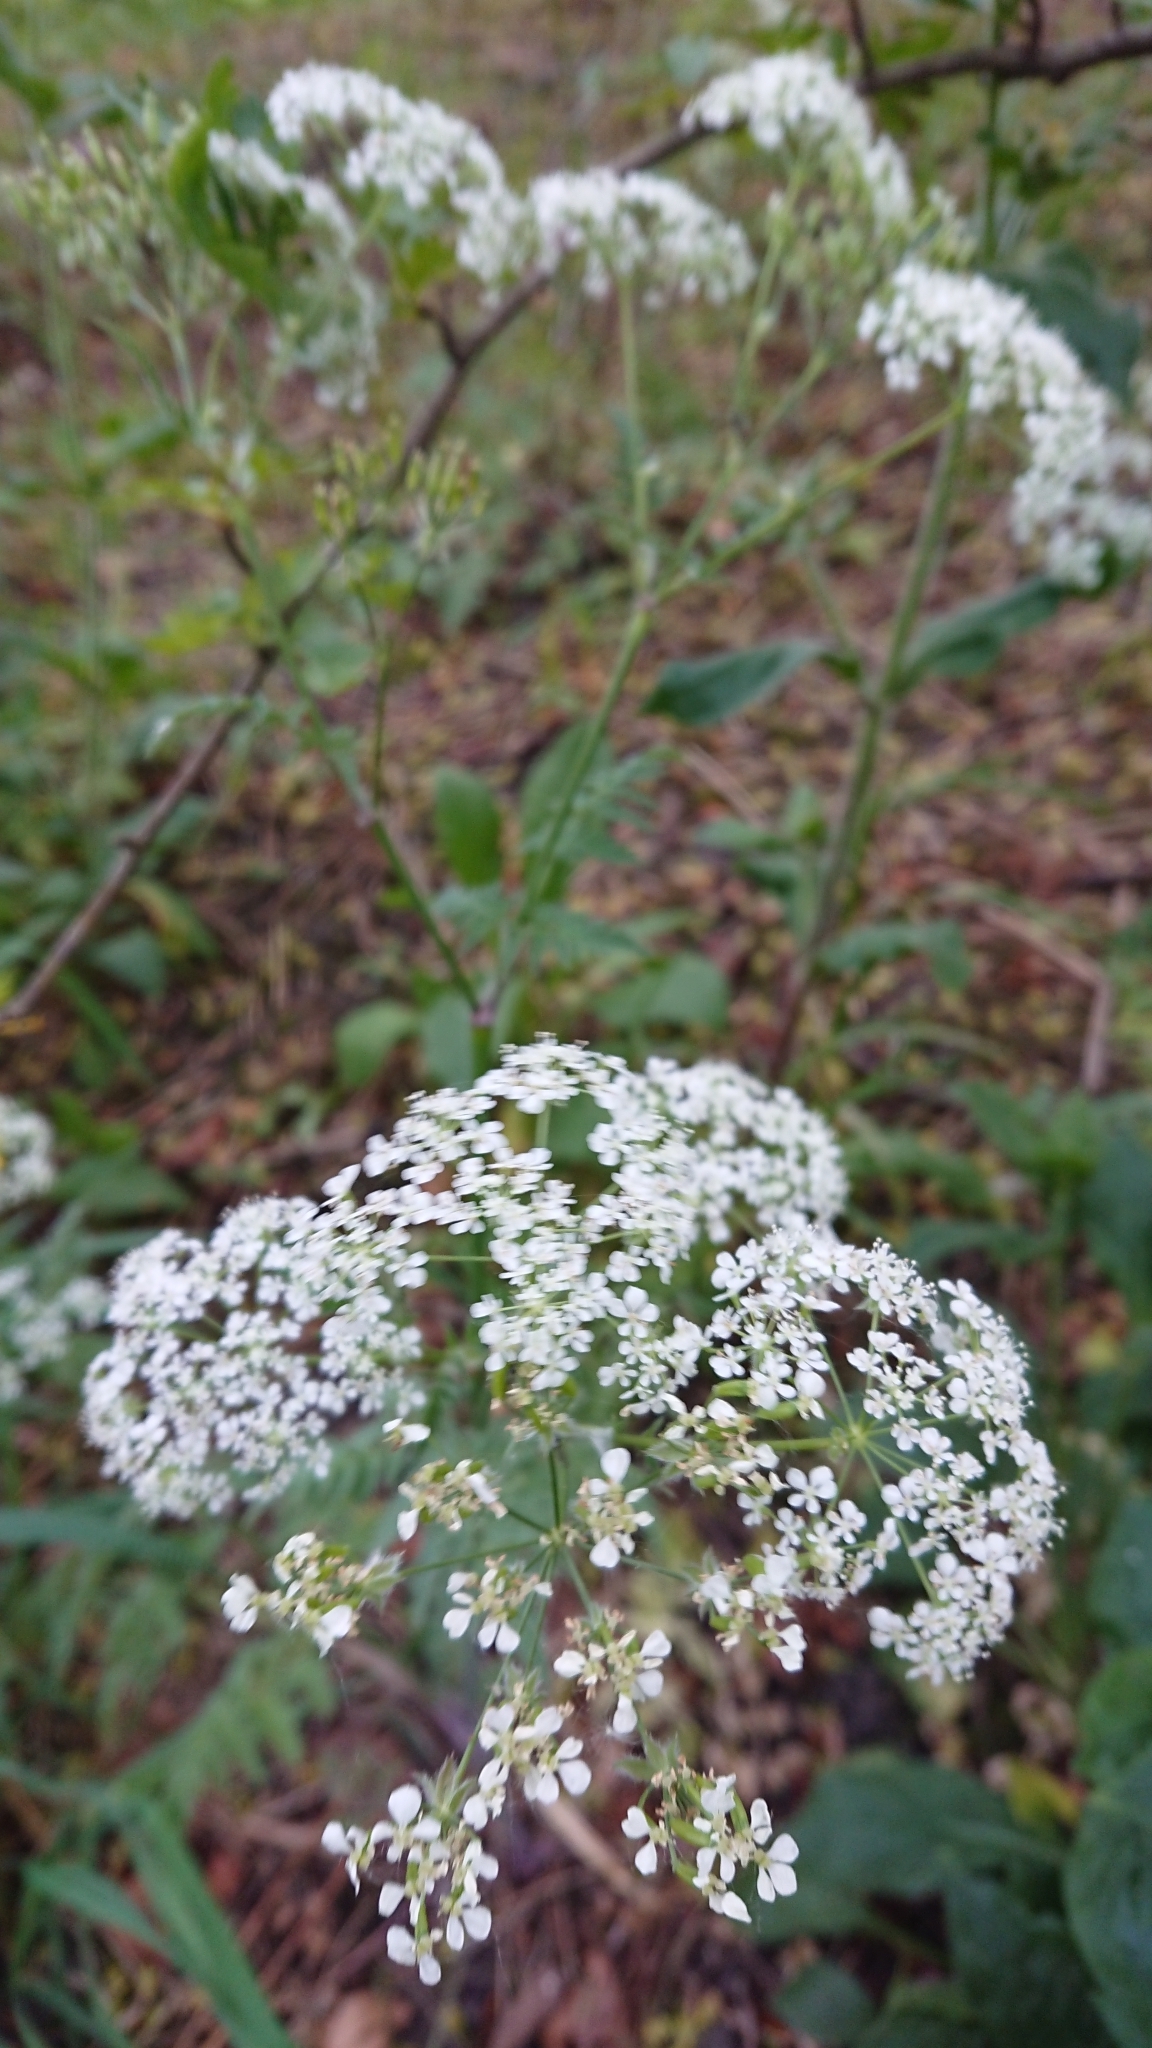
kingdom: Plantae
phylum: Tracheophyta
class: Magnoliopsida
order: Apiales
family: Apiaceae
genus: Anthriscus
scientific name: Anthriscus sylvestris
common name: Cow parsley
